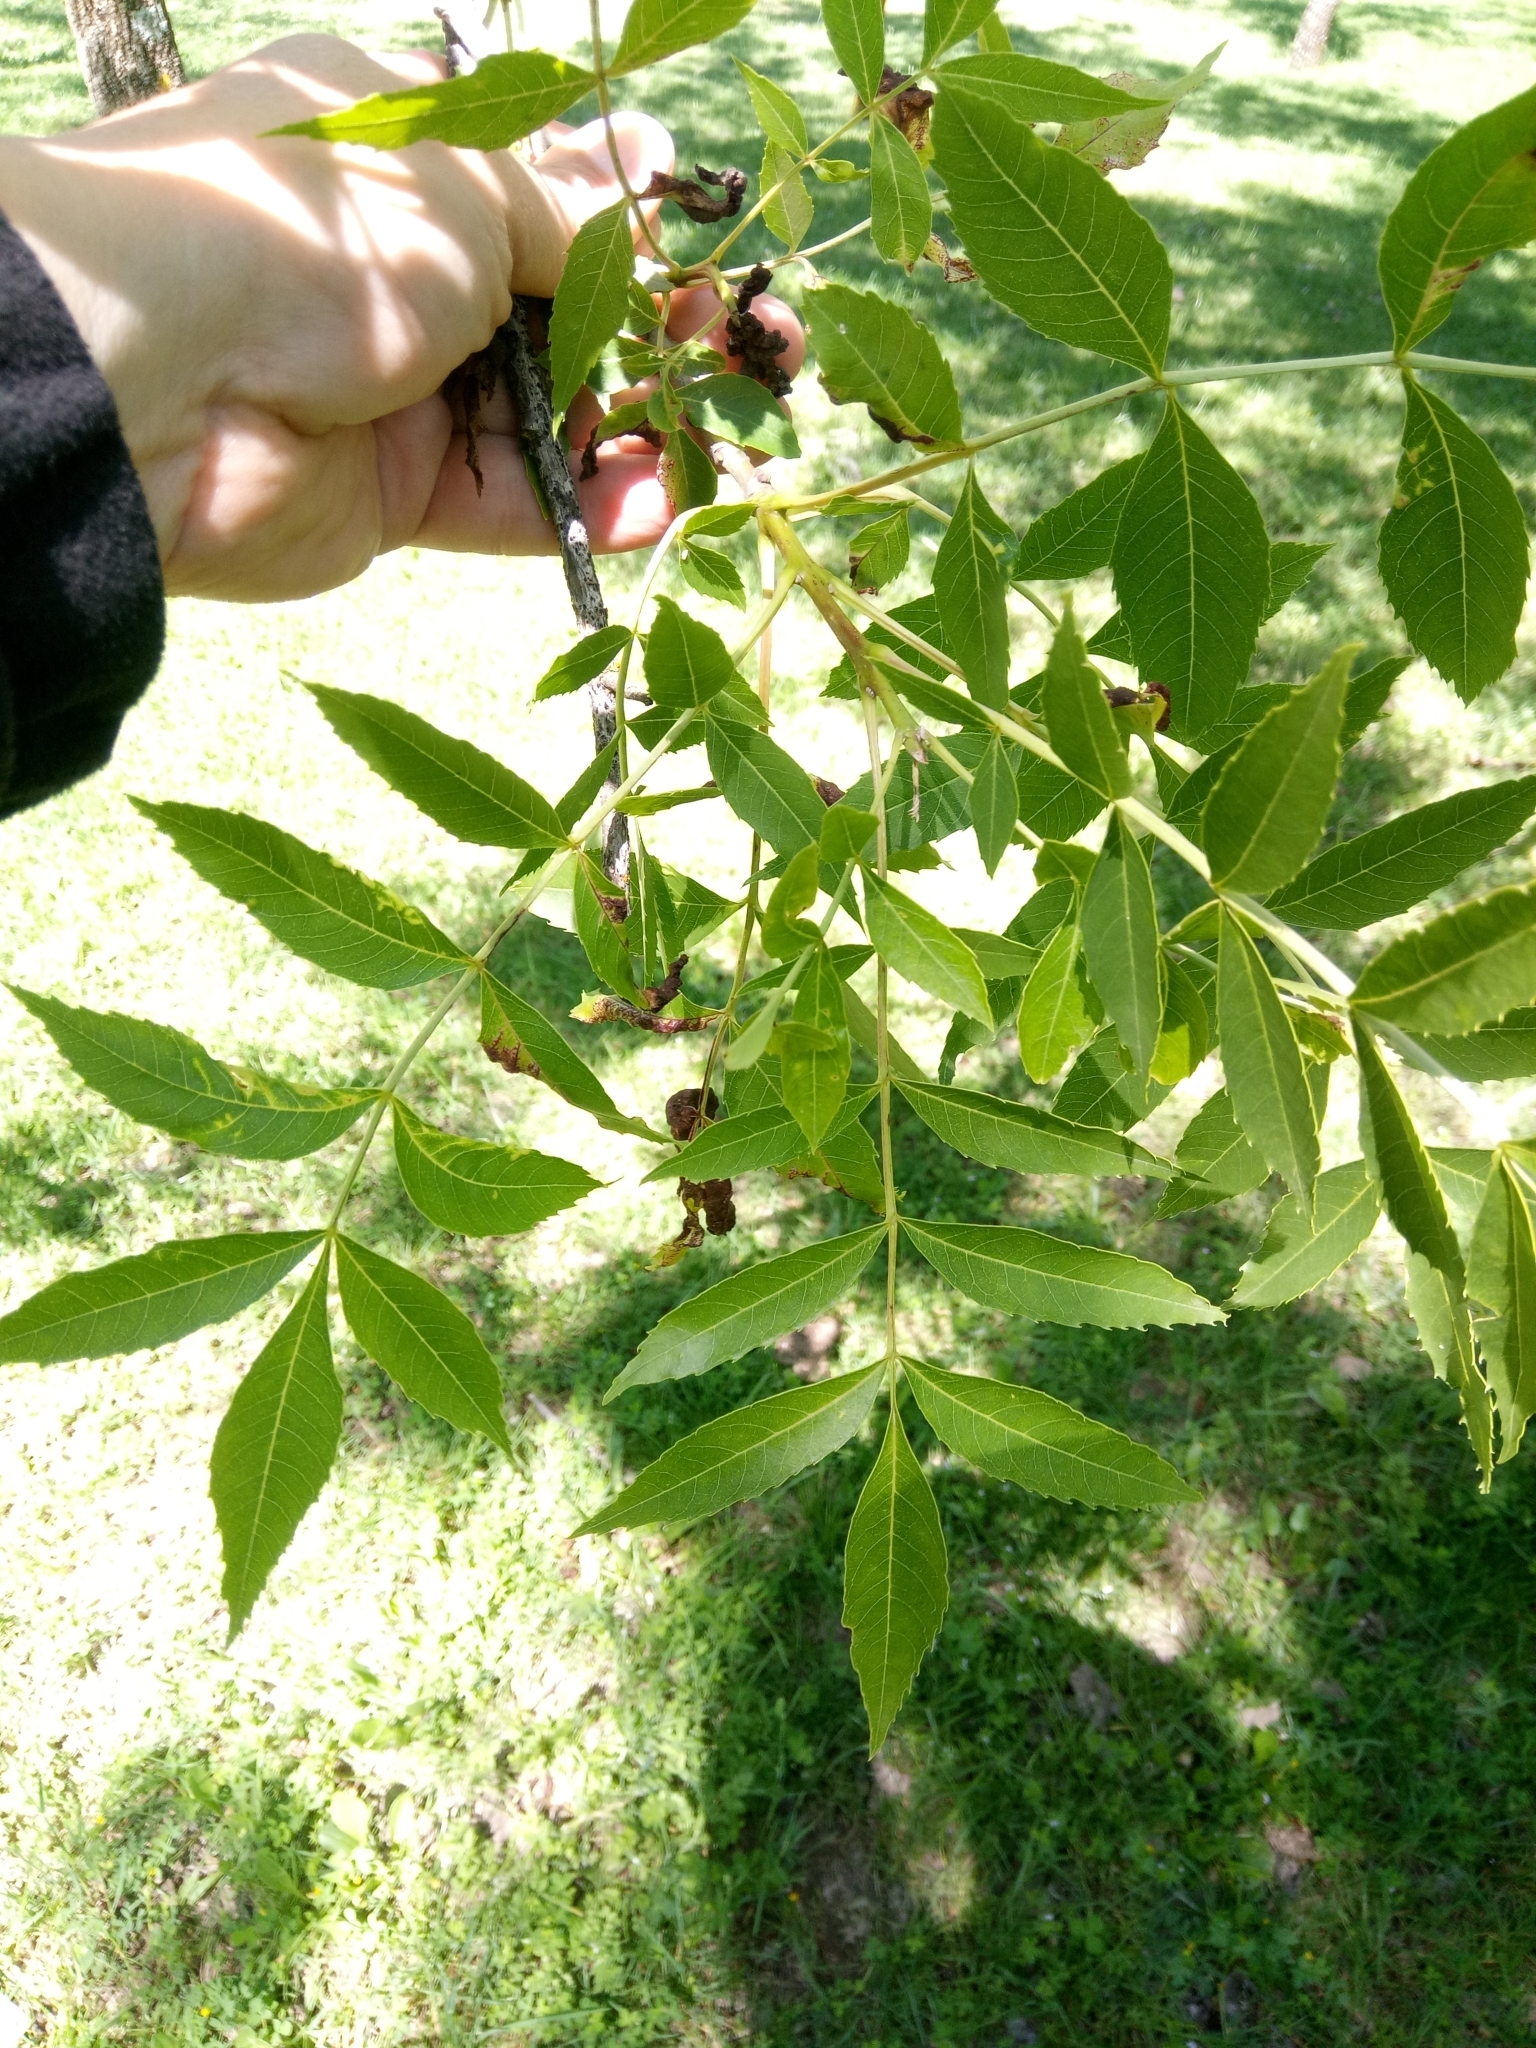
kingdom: Plantae
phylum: Tracheophyta
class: Magnoliopsida
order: Lamiales
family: Oleaceae
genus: Fraxinus
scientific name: Fraxinus angustifolia
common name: Narrow-leafed ash
